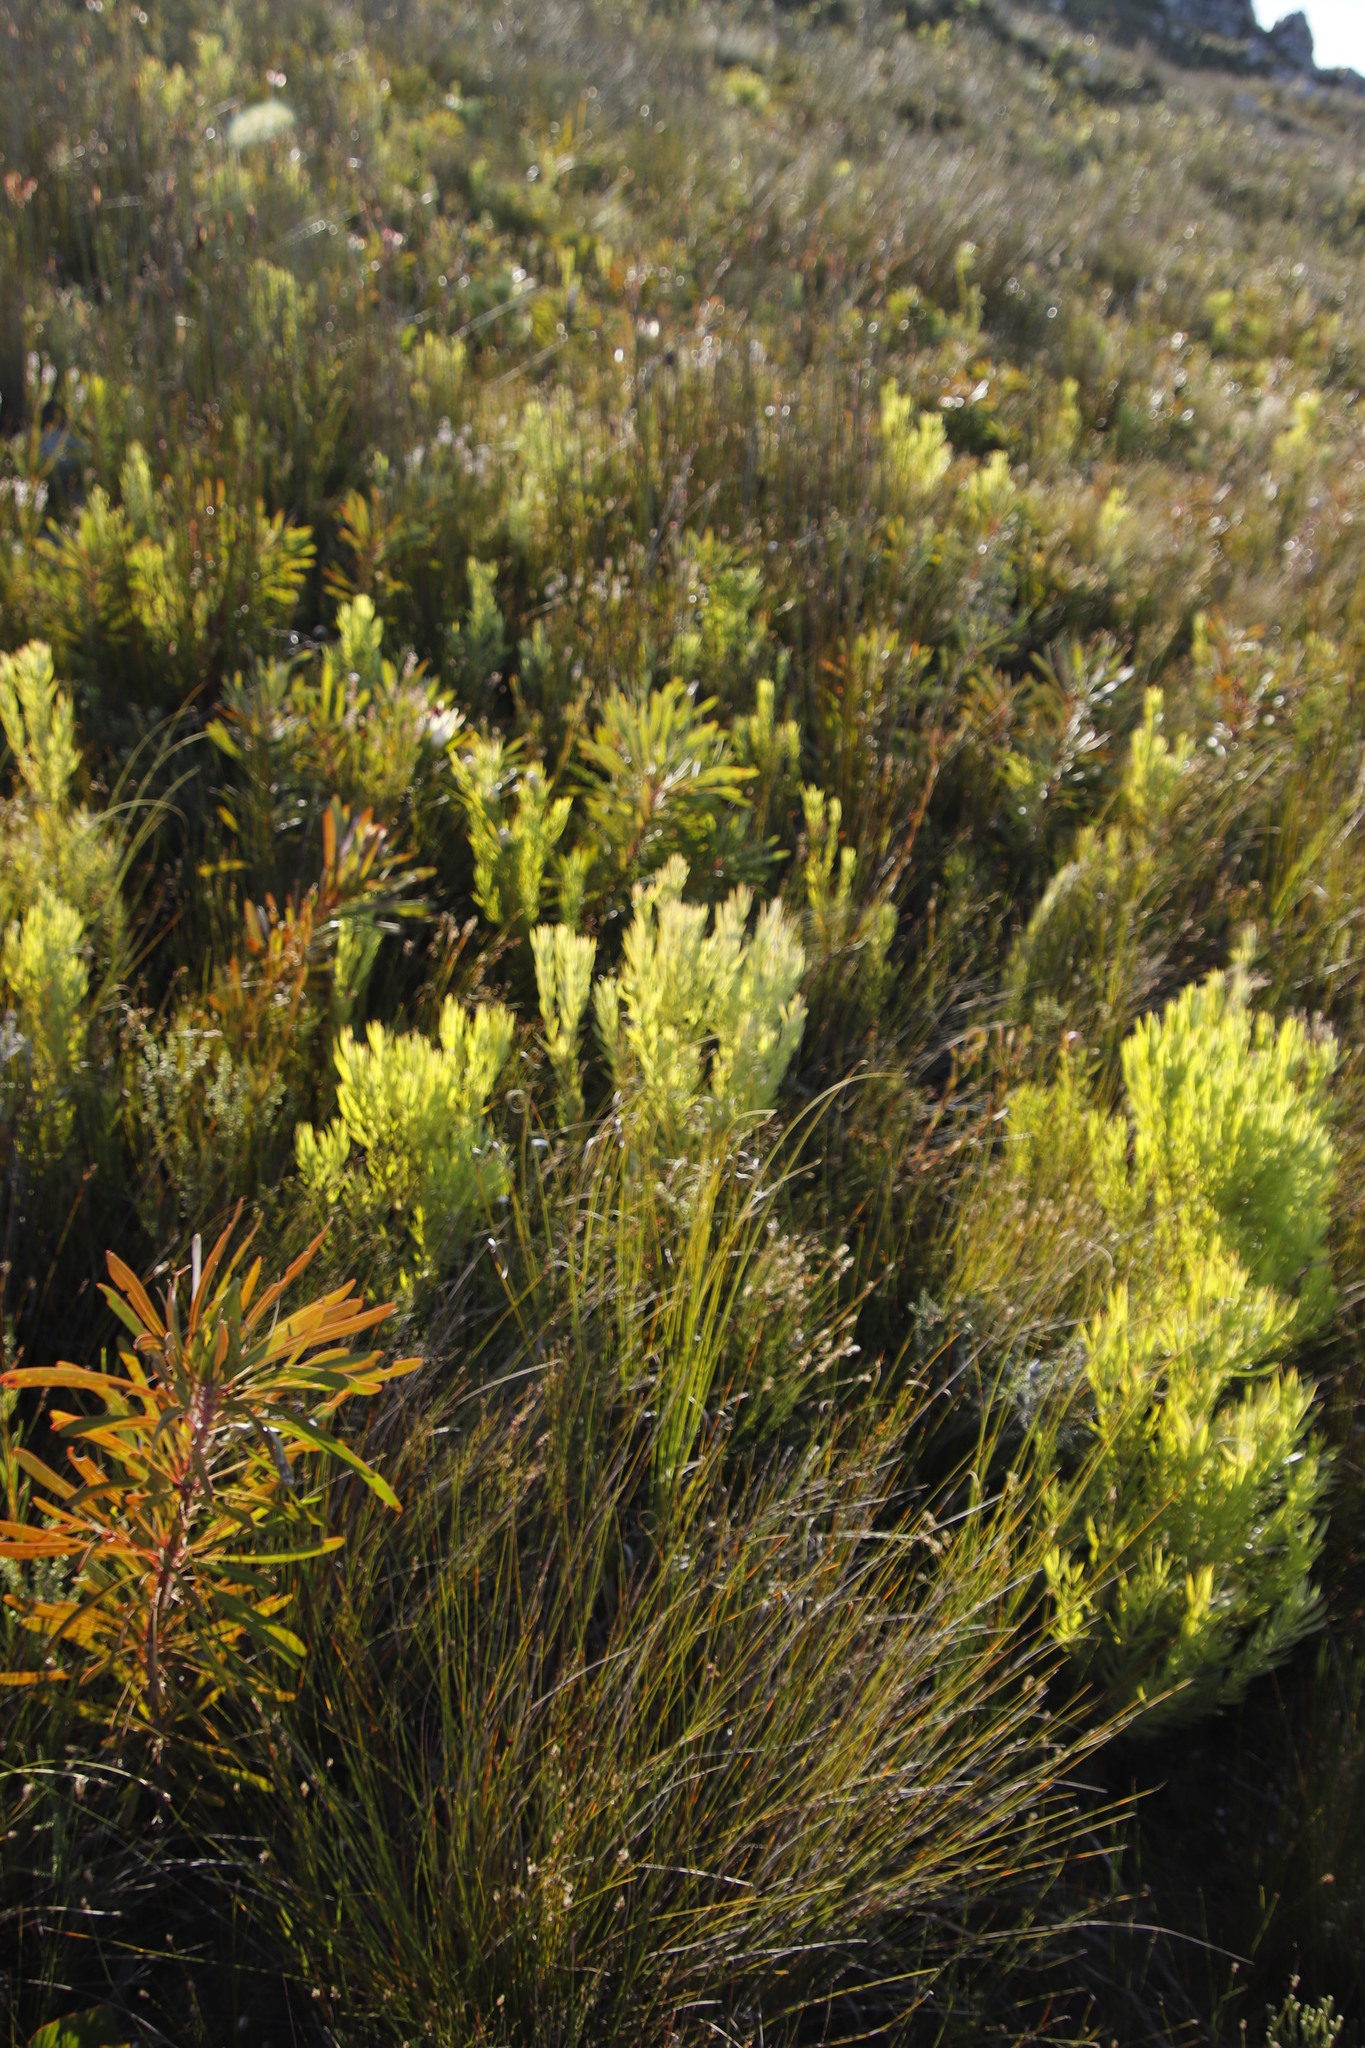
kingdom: Plantae
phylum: Tracheophyta
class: Magnoliopsida
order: Proteales
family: Proteaceae
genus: Leucadendron
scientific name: Leucadendron xanthoconus
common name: Sickle-leaf conebush
